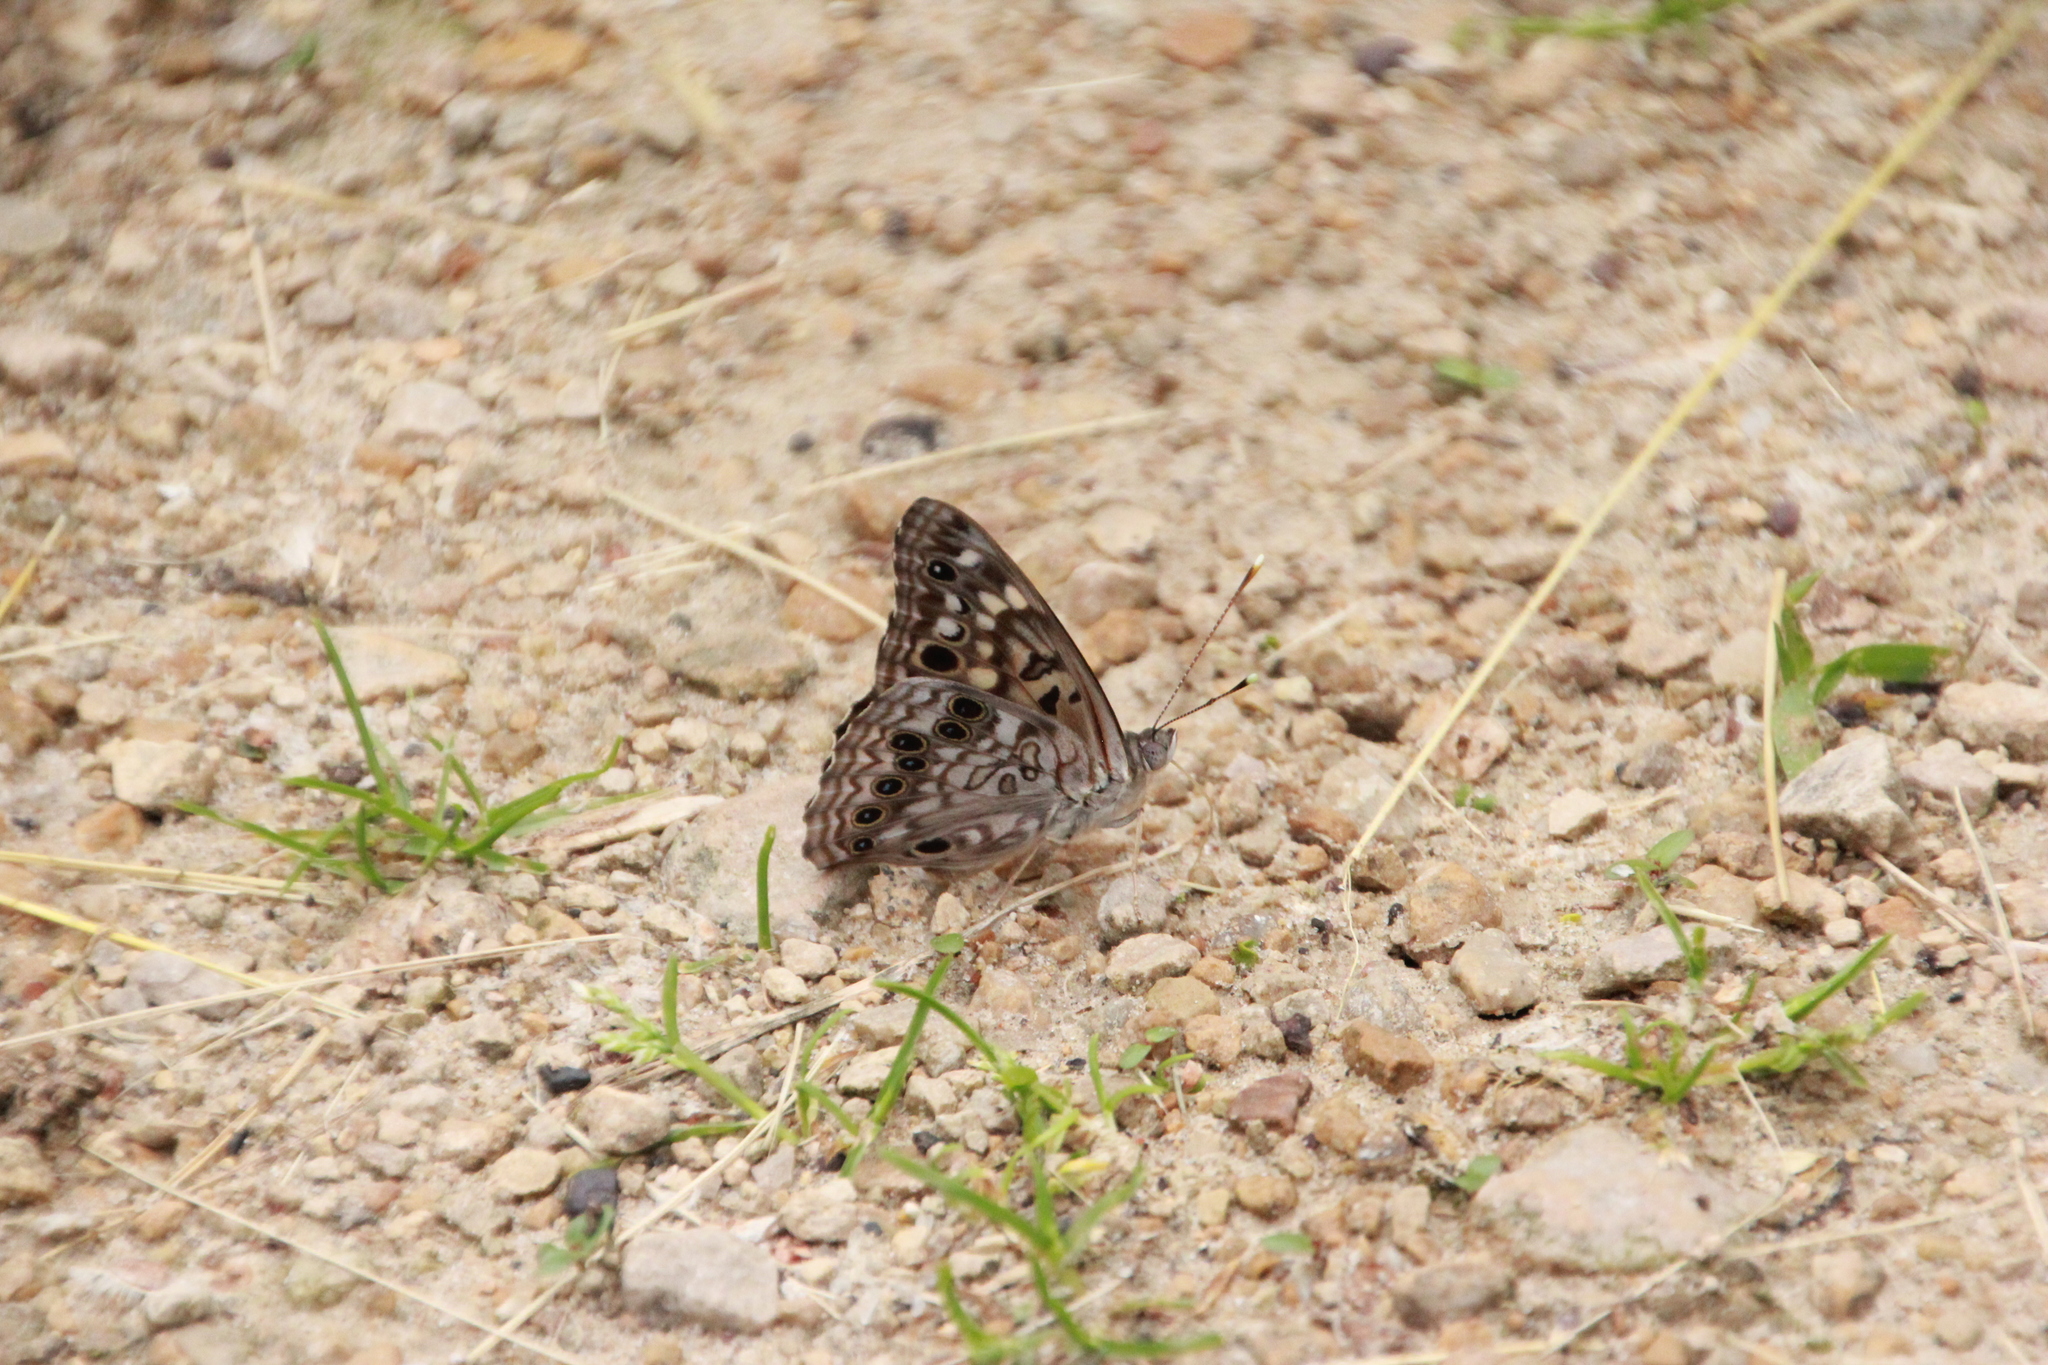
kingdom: Animalia
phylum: Arthropoda
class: Insecta
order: Lepidoptera
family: Nymphalidae
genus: Asterocampa
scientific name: Asterocampa celtis
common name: Hackberry emperor
